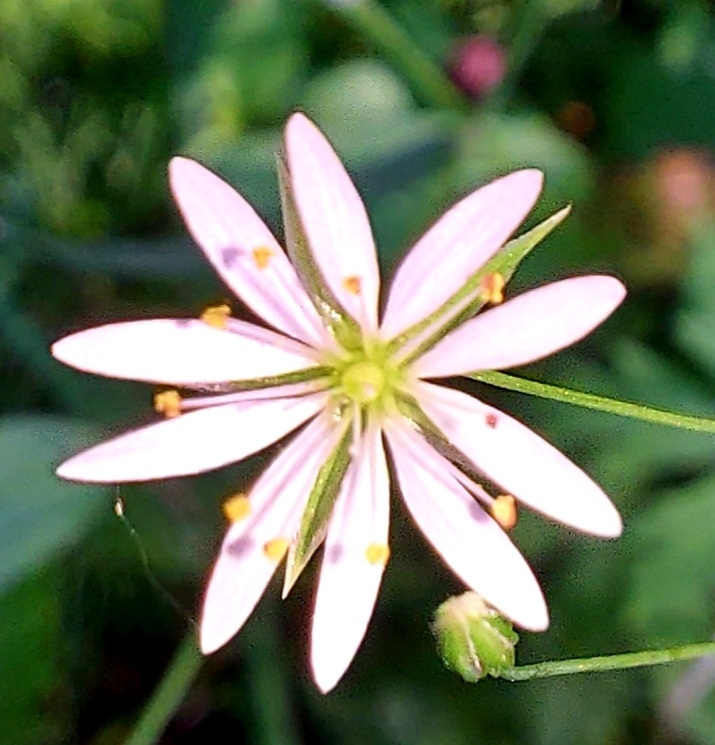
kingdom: Plantae
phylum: Tracheophyta
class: Magnoliopsida
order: Caryophyllales
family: Caryophyllaceae
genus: Stellaria
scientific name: Stellaria graminea
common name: Grass-like starwort
